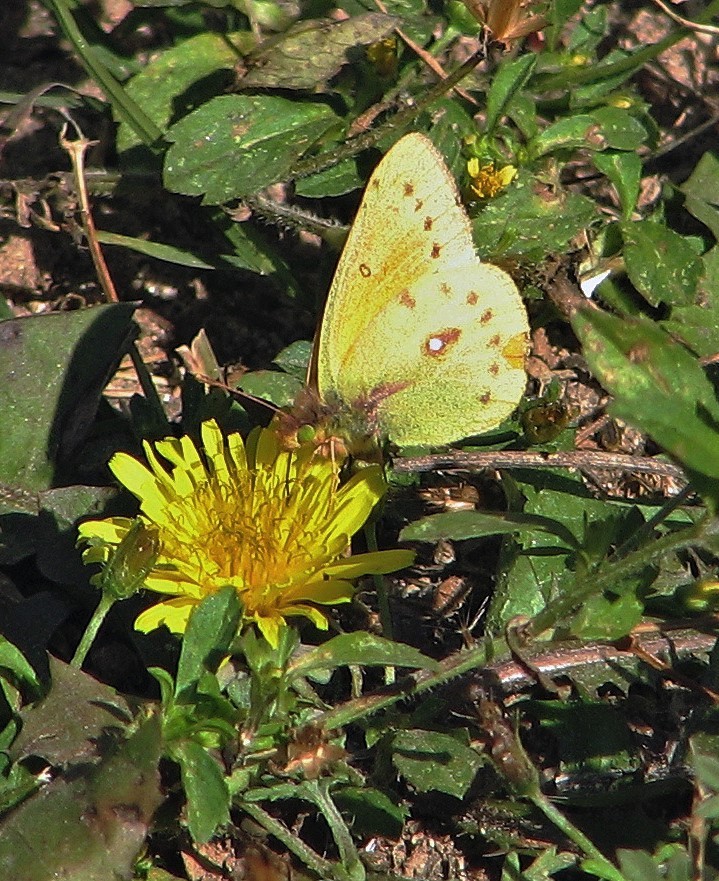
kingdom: Animalia
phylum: Arthropoda
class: Insecta
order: Lepidoptera
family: Pieridae
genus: Colias
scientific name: Colias lesbia
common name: Lesbia clouded yellow
